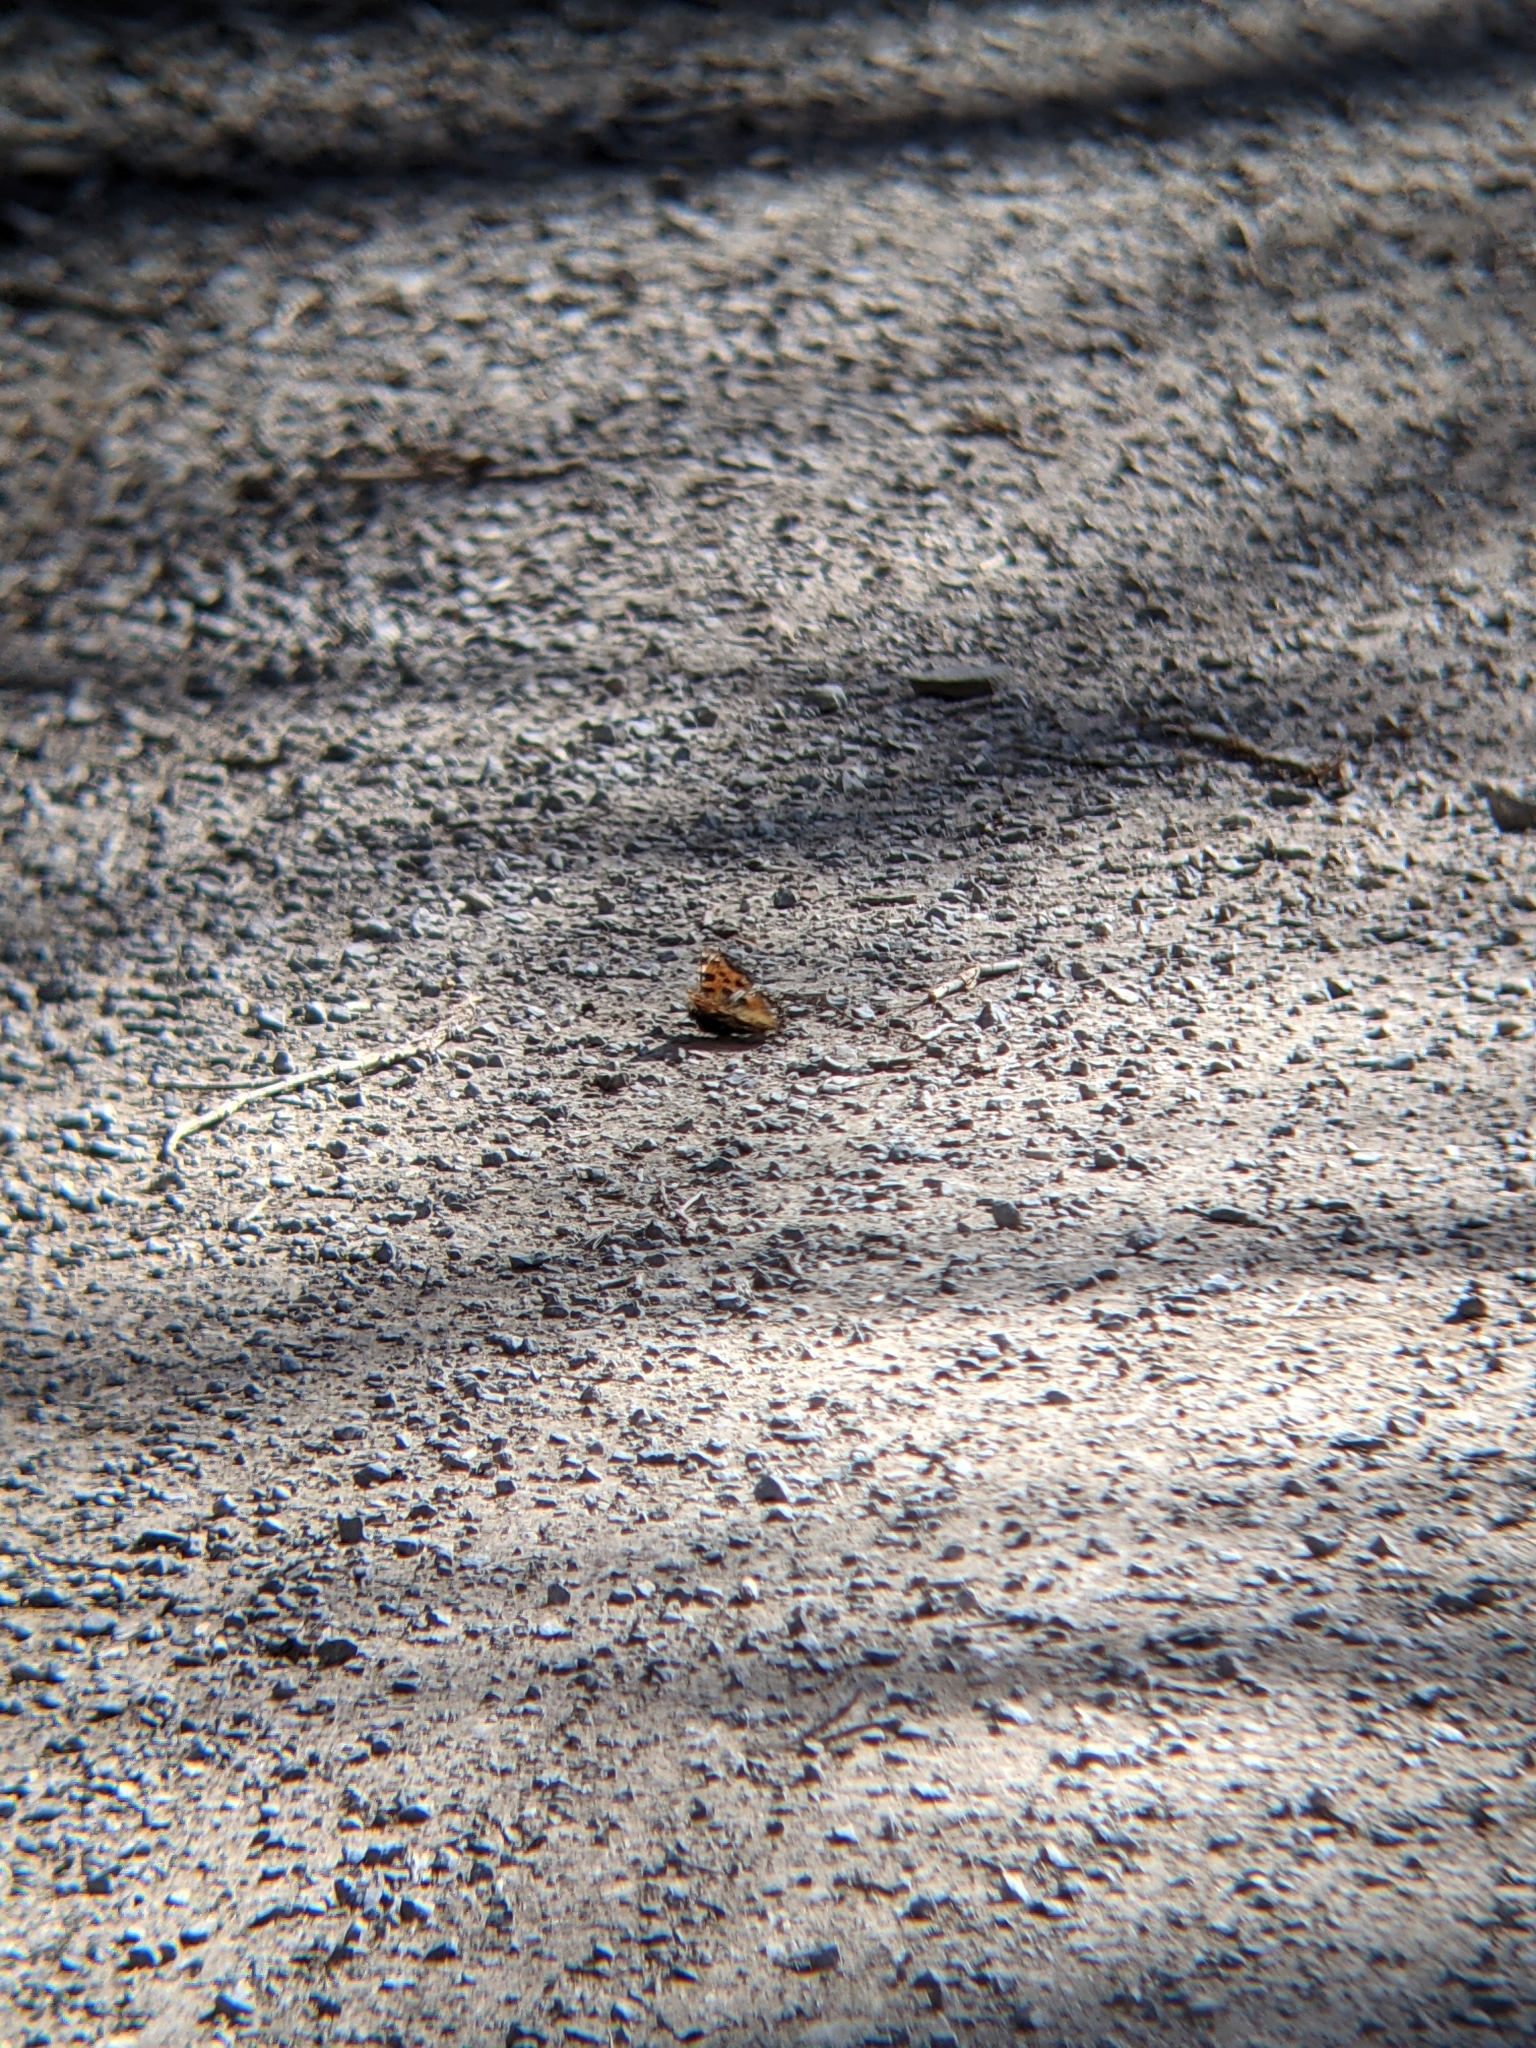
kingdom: Animalia
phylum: Arthropoda
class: Insecta
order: Lepidoptera
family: Nymphalidae
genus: Nymphalis
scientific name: Nymphalis polychloros
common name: Large tortoiseshell
